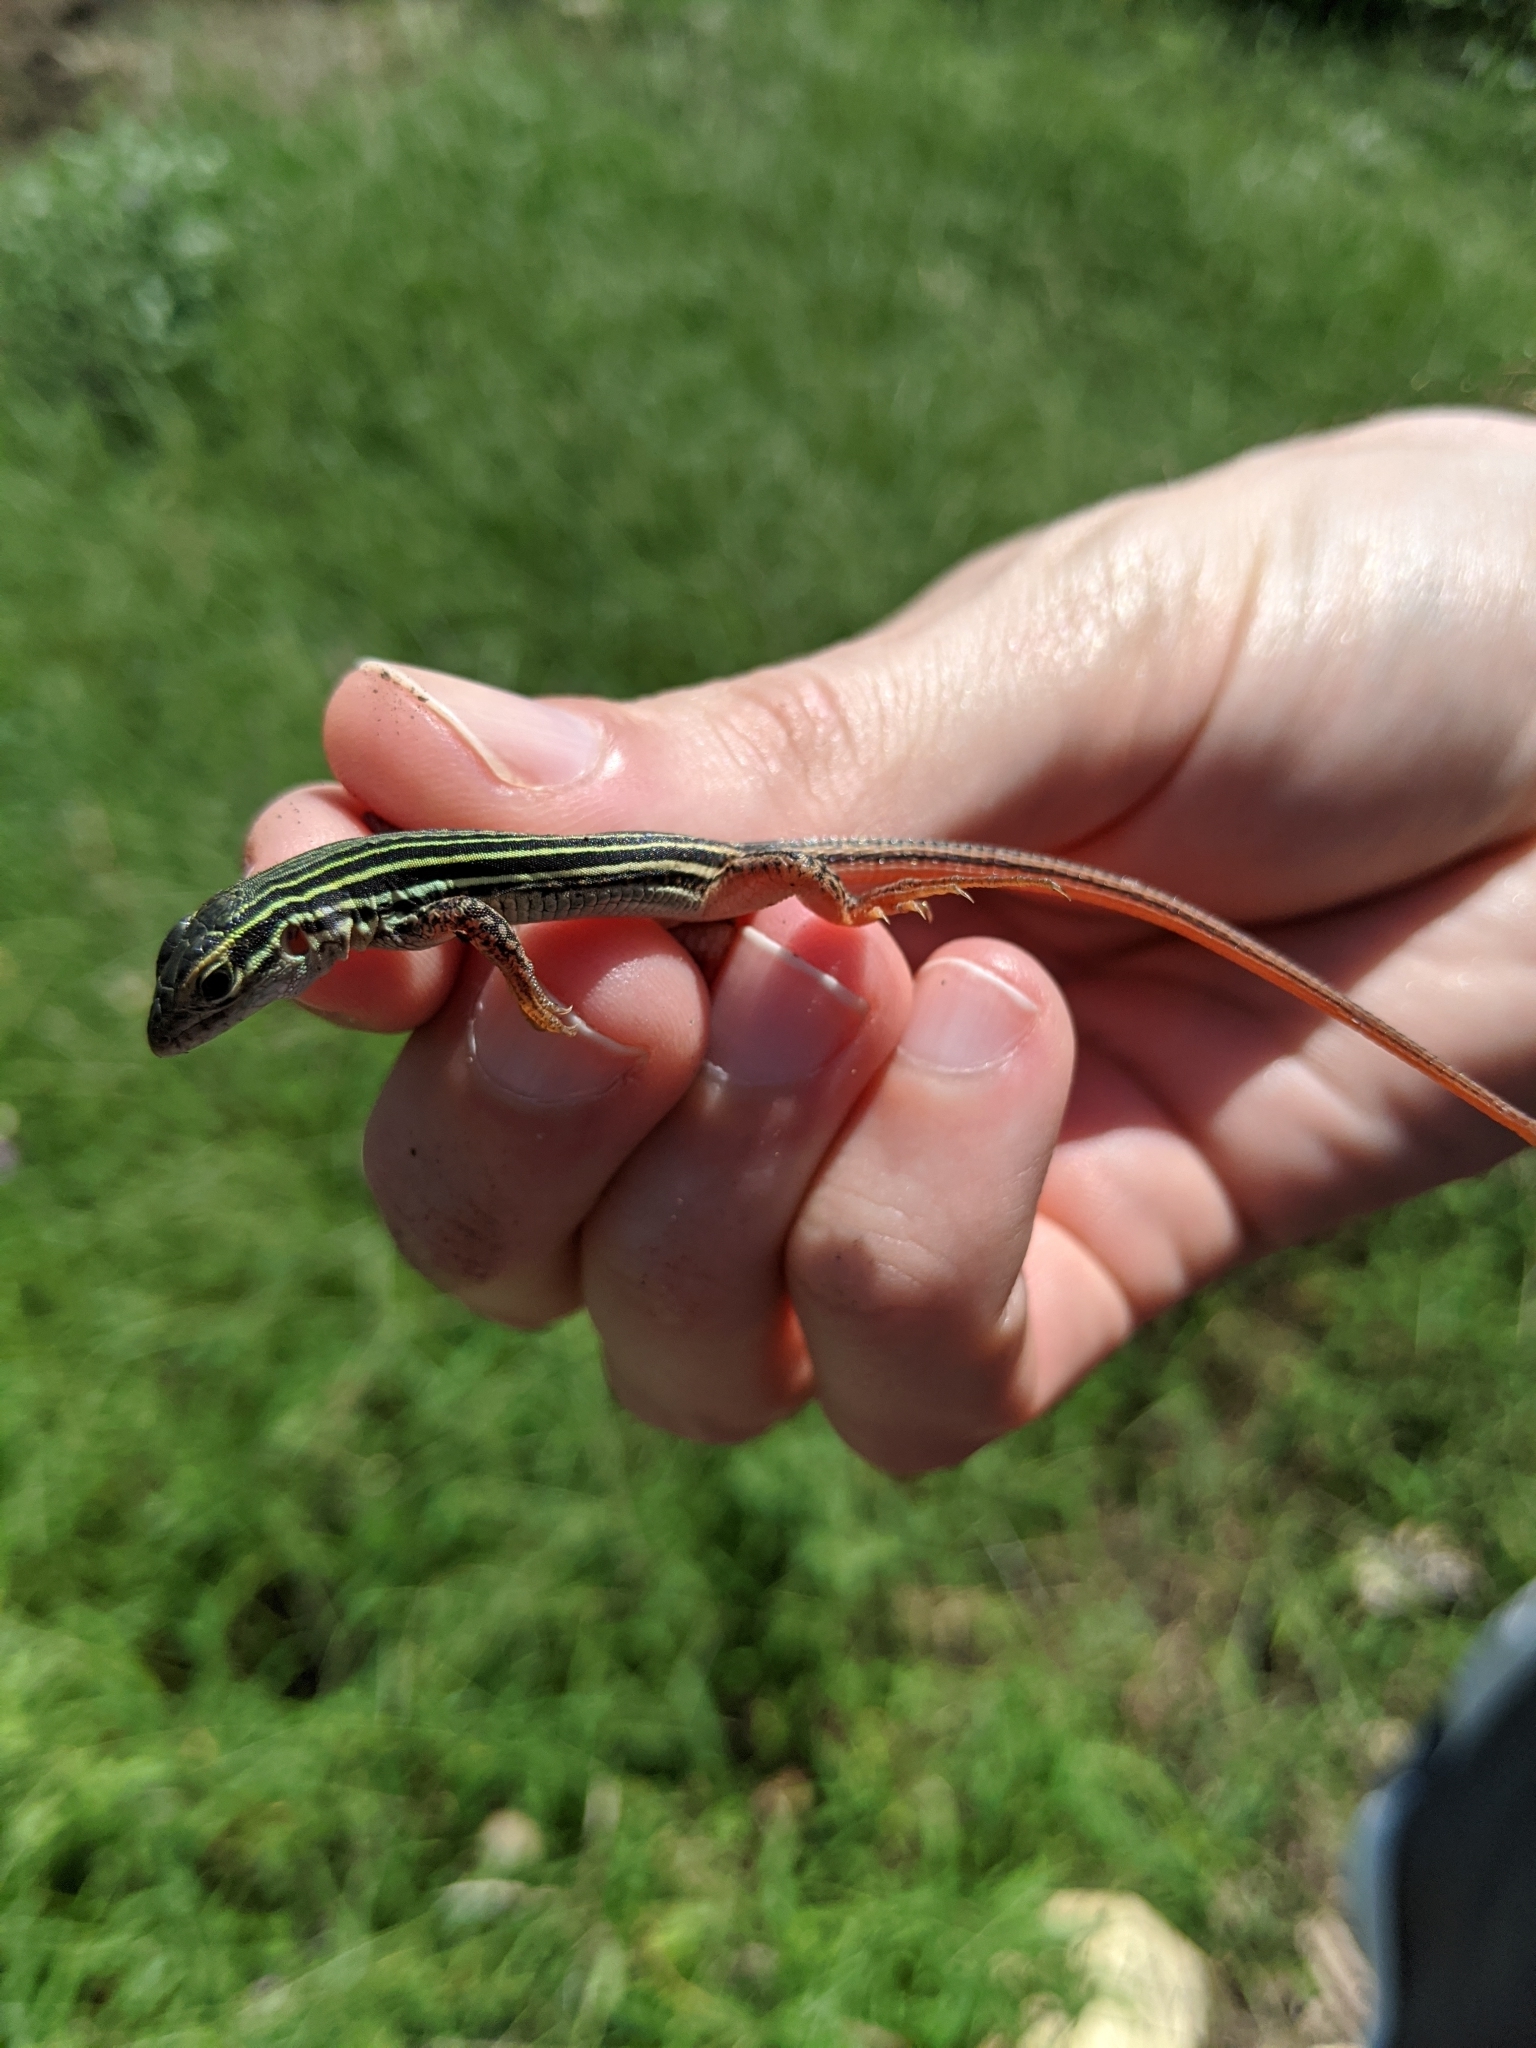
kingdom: Animalia
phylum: Chordata
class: Squamata
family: Teiidae
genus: Aspidoscelis
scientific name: Aspidoscelis gularis
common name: Eastern spotted whiptail
